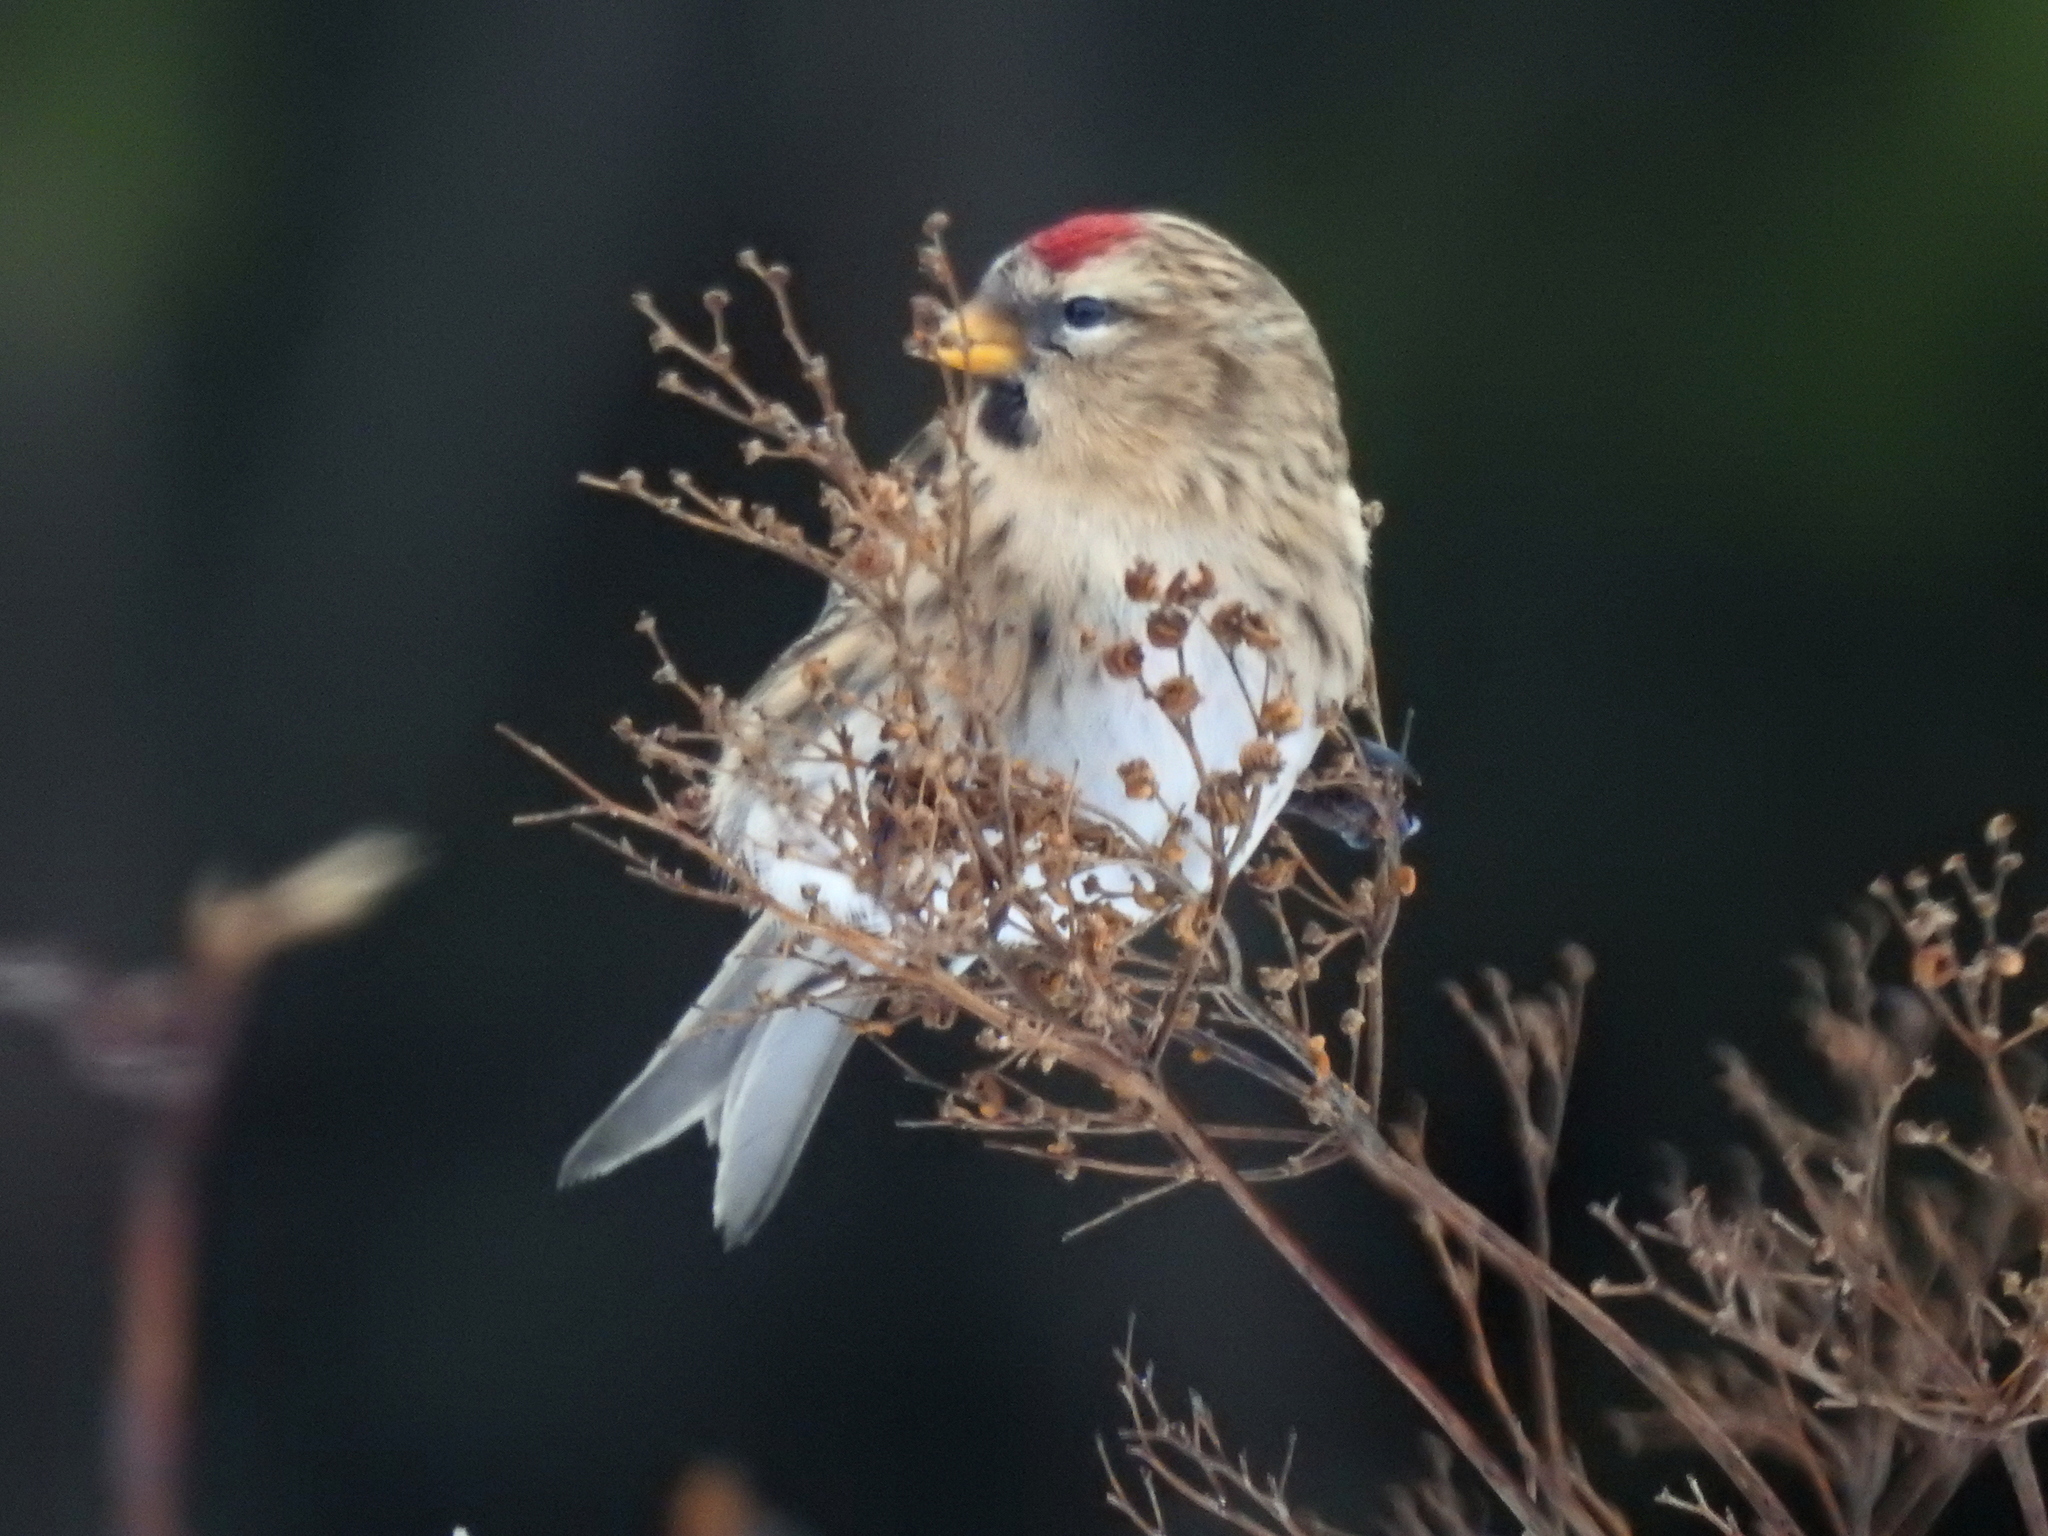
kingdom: Animalia
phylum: Chordata
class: Aves
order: Passeriformes
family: Fringillidae
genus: Acanthis
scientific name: Acanthis flammea
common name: Common redpoll
